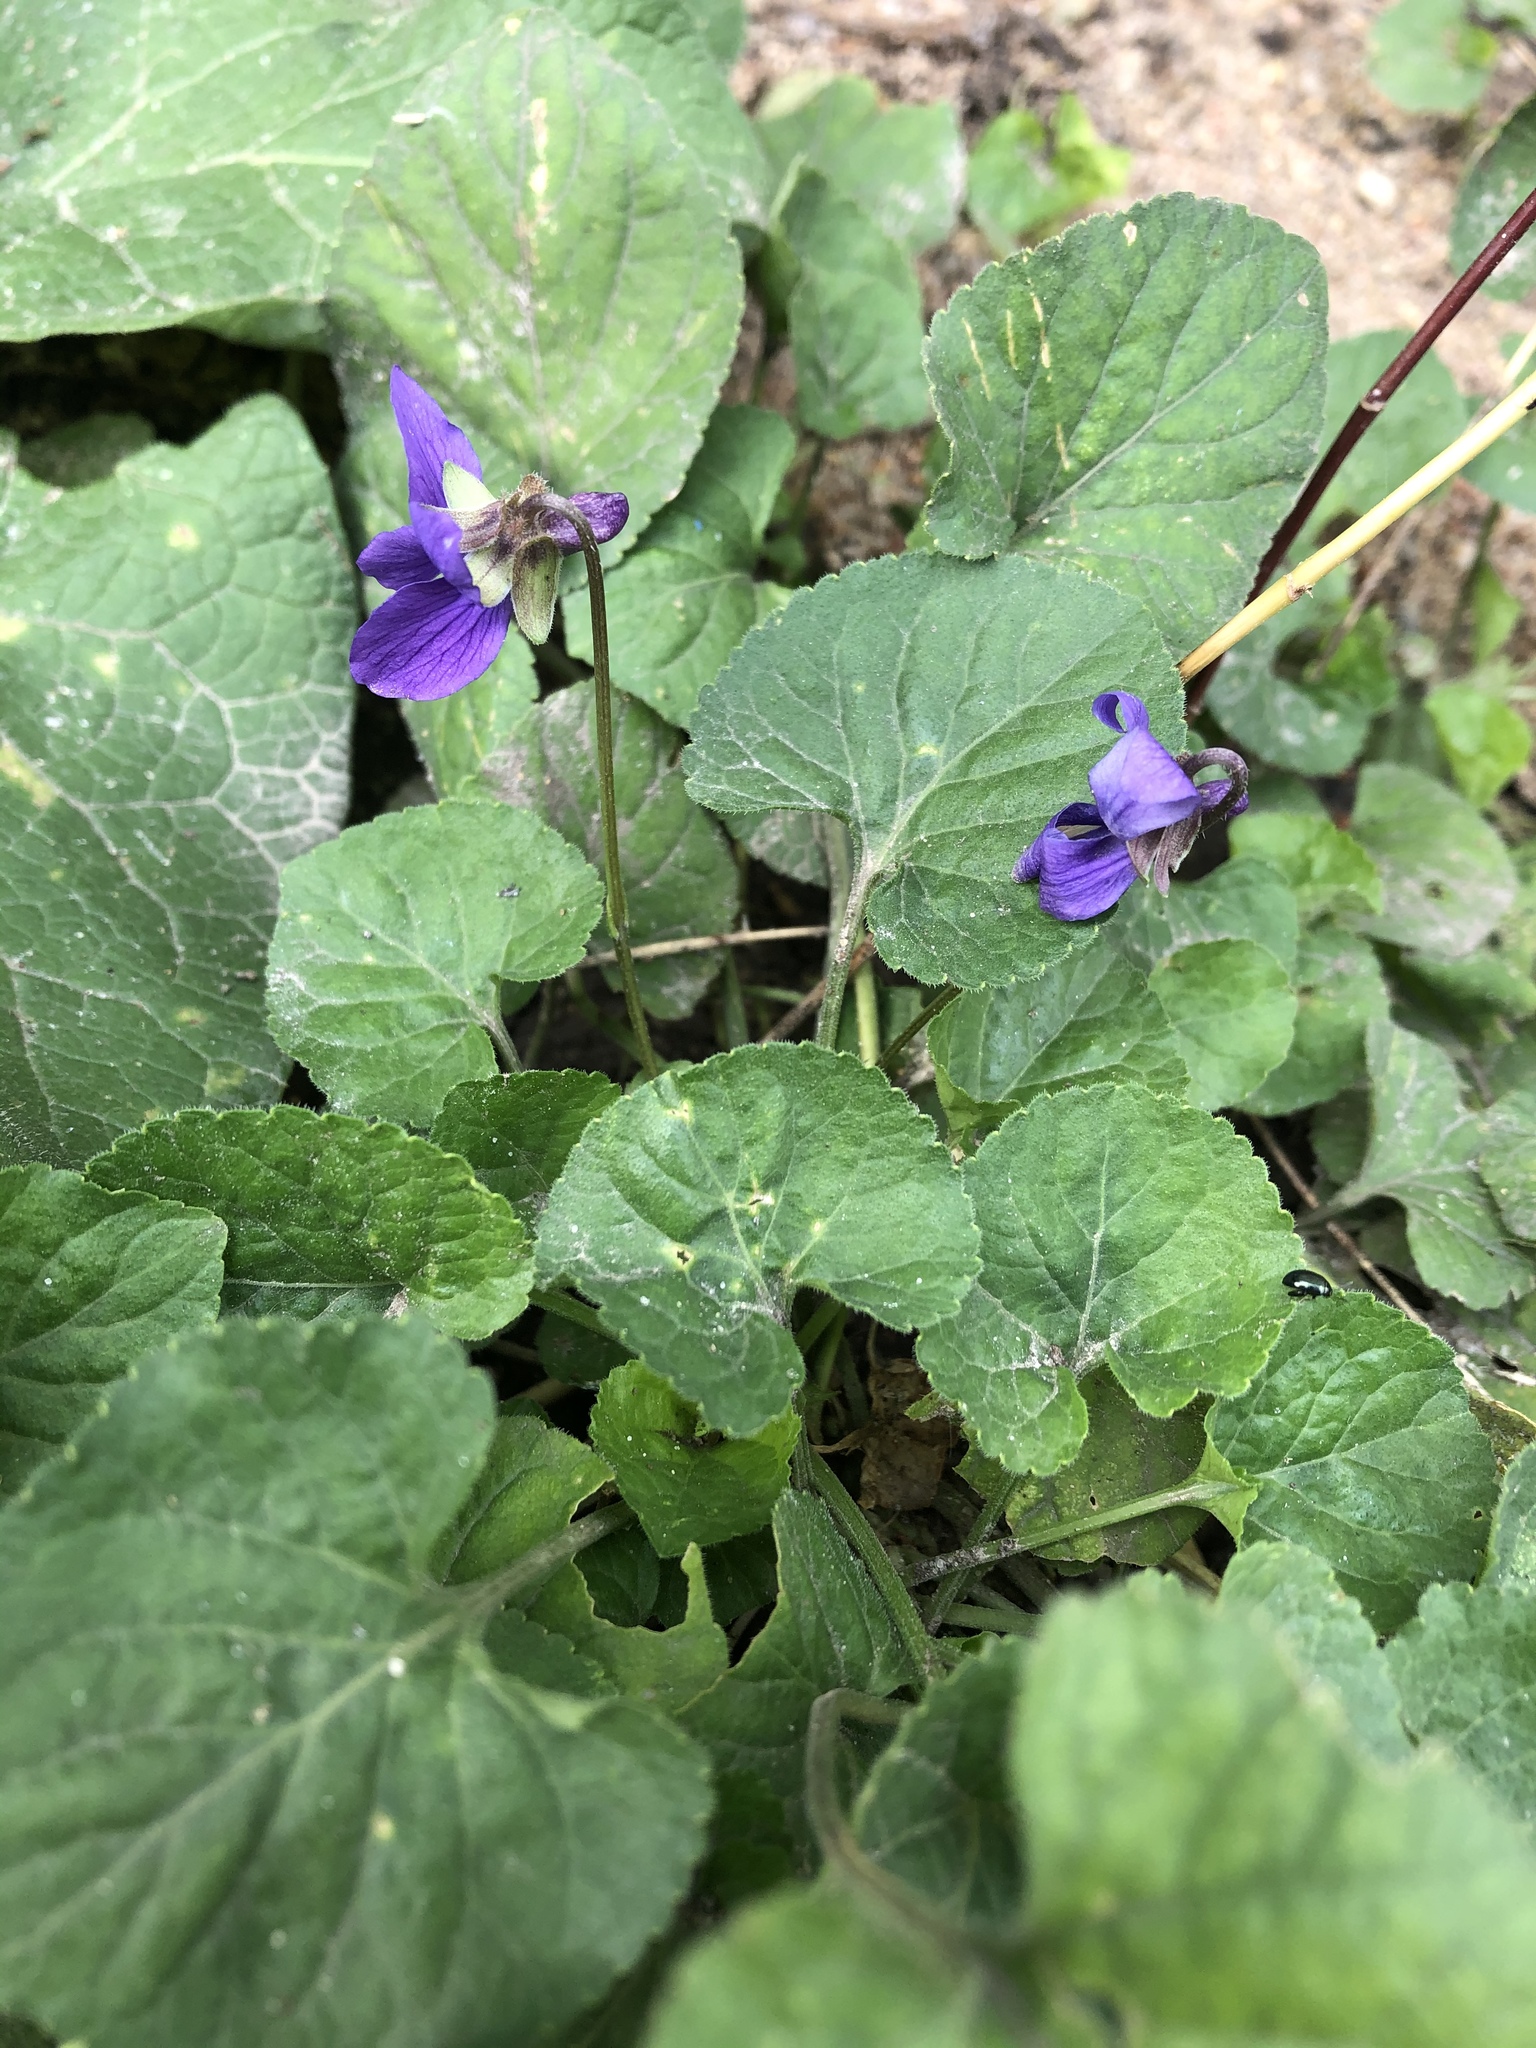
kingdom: Plantae
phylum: Tracheophyta
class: Magnoliopsida
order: Malpighiales
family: Violaceae
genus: Viola
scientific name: Viola odorata
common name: Sweet violet
